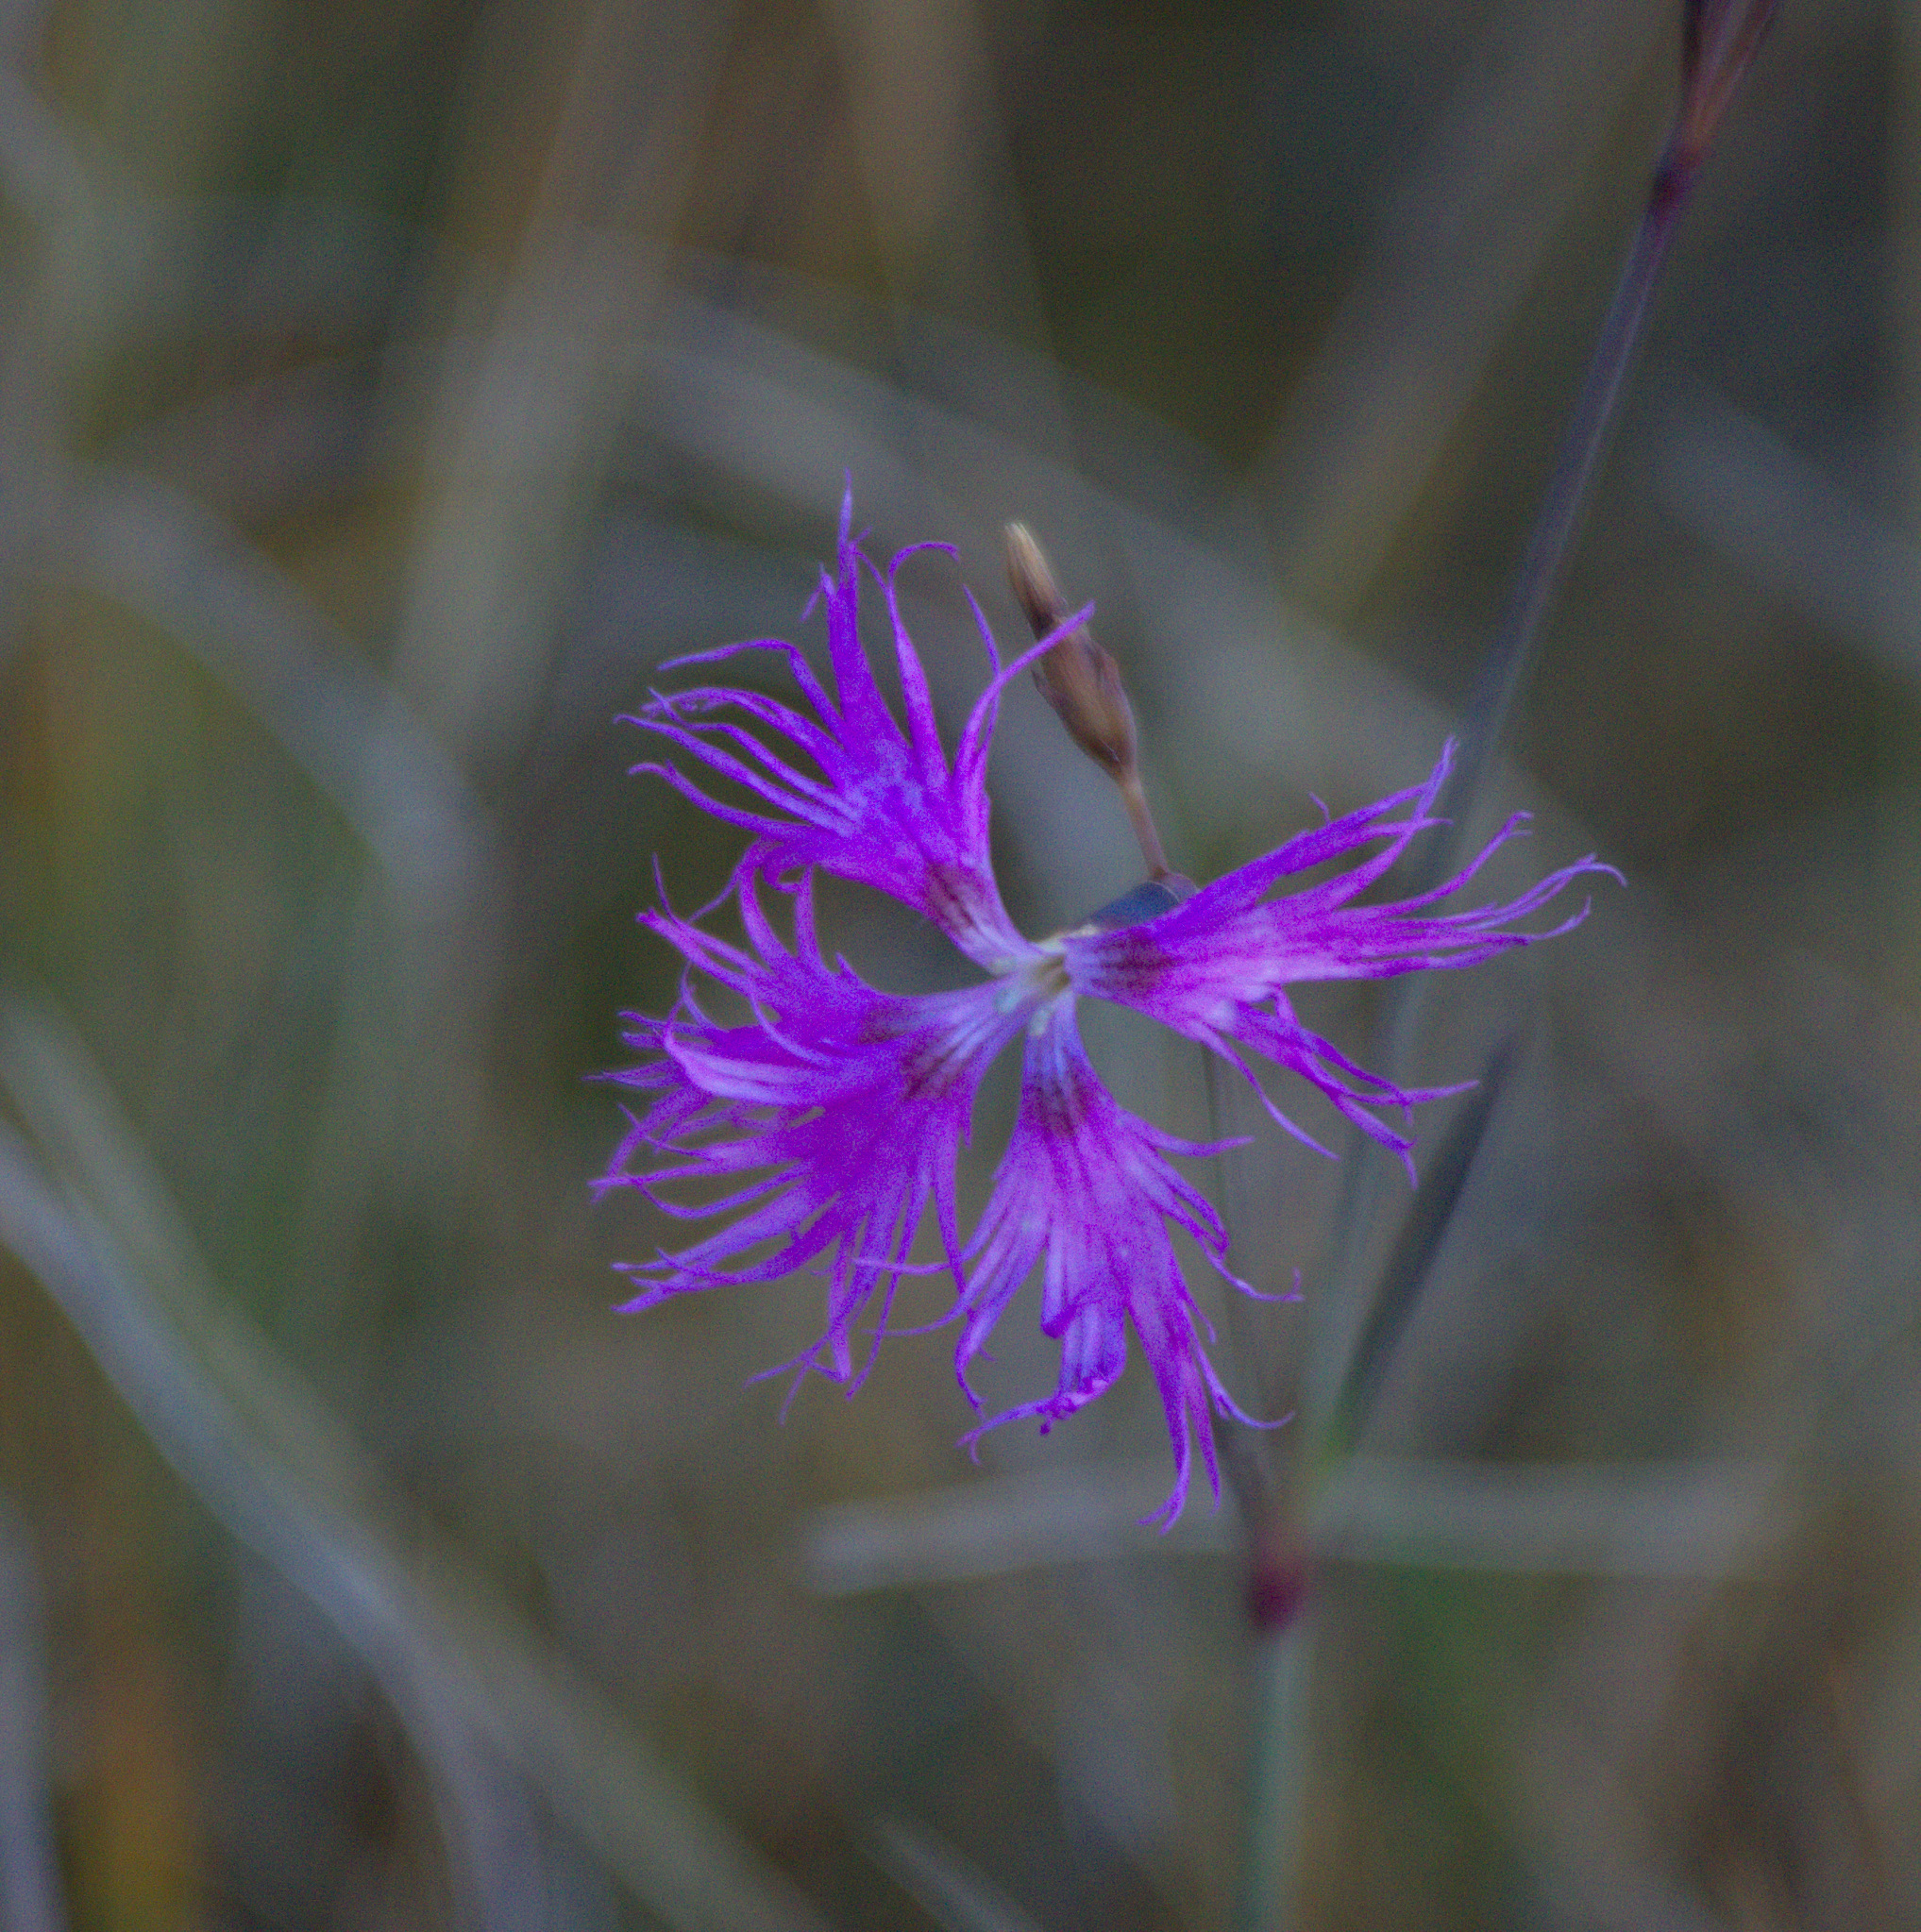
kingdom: Plantae
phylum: Tracheophyta
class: Magnoliopsida
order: Caryophyllales
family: Caryophyllaceae
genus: Dianthus
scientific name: Dianthus superbus
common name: Fringed pink
